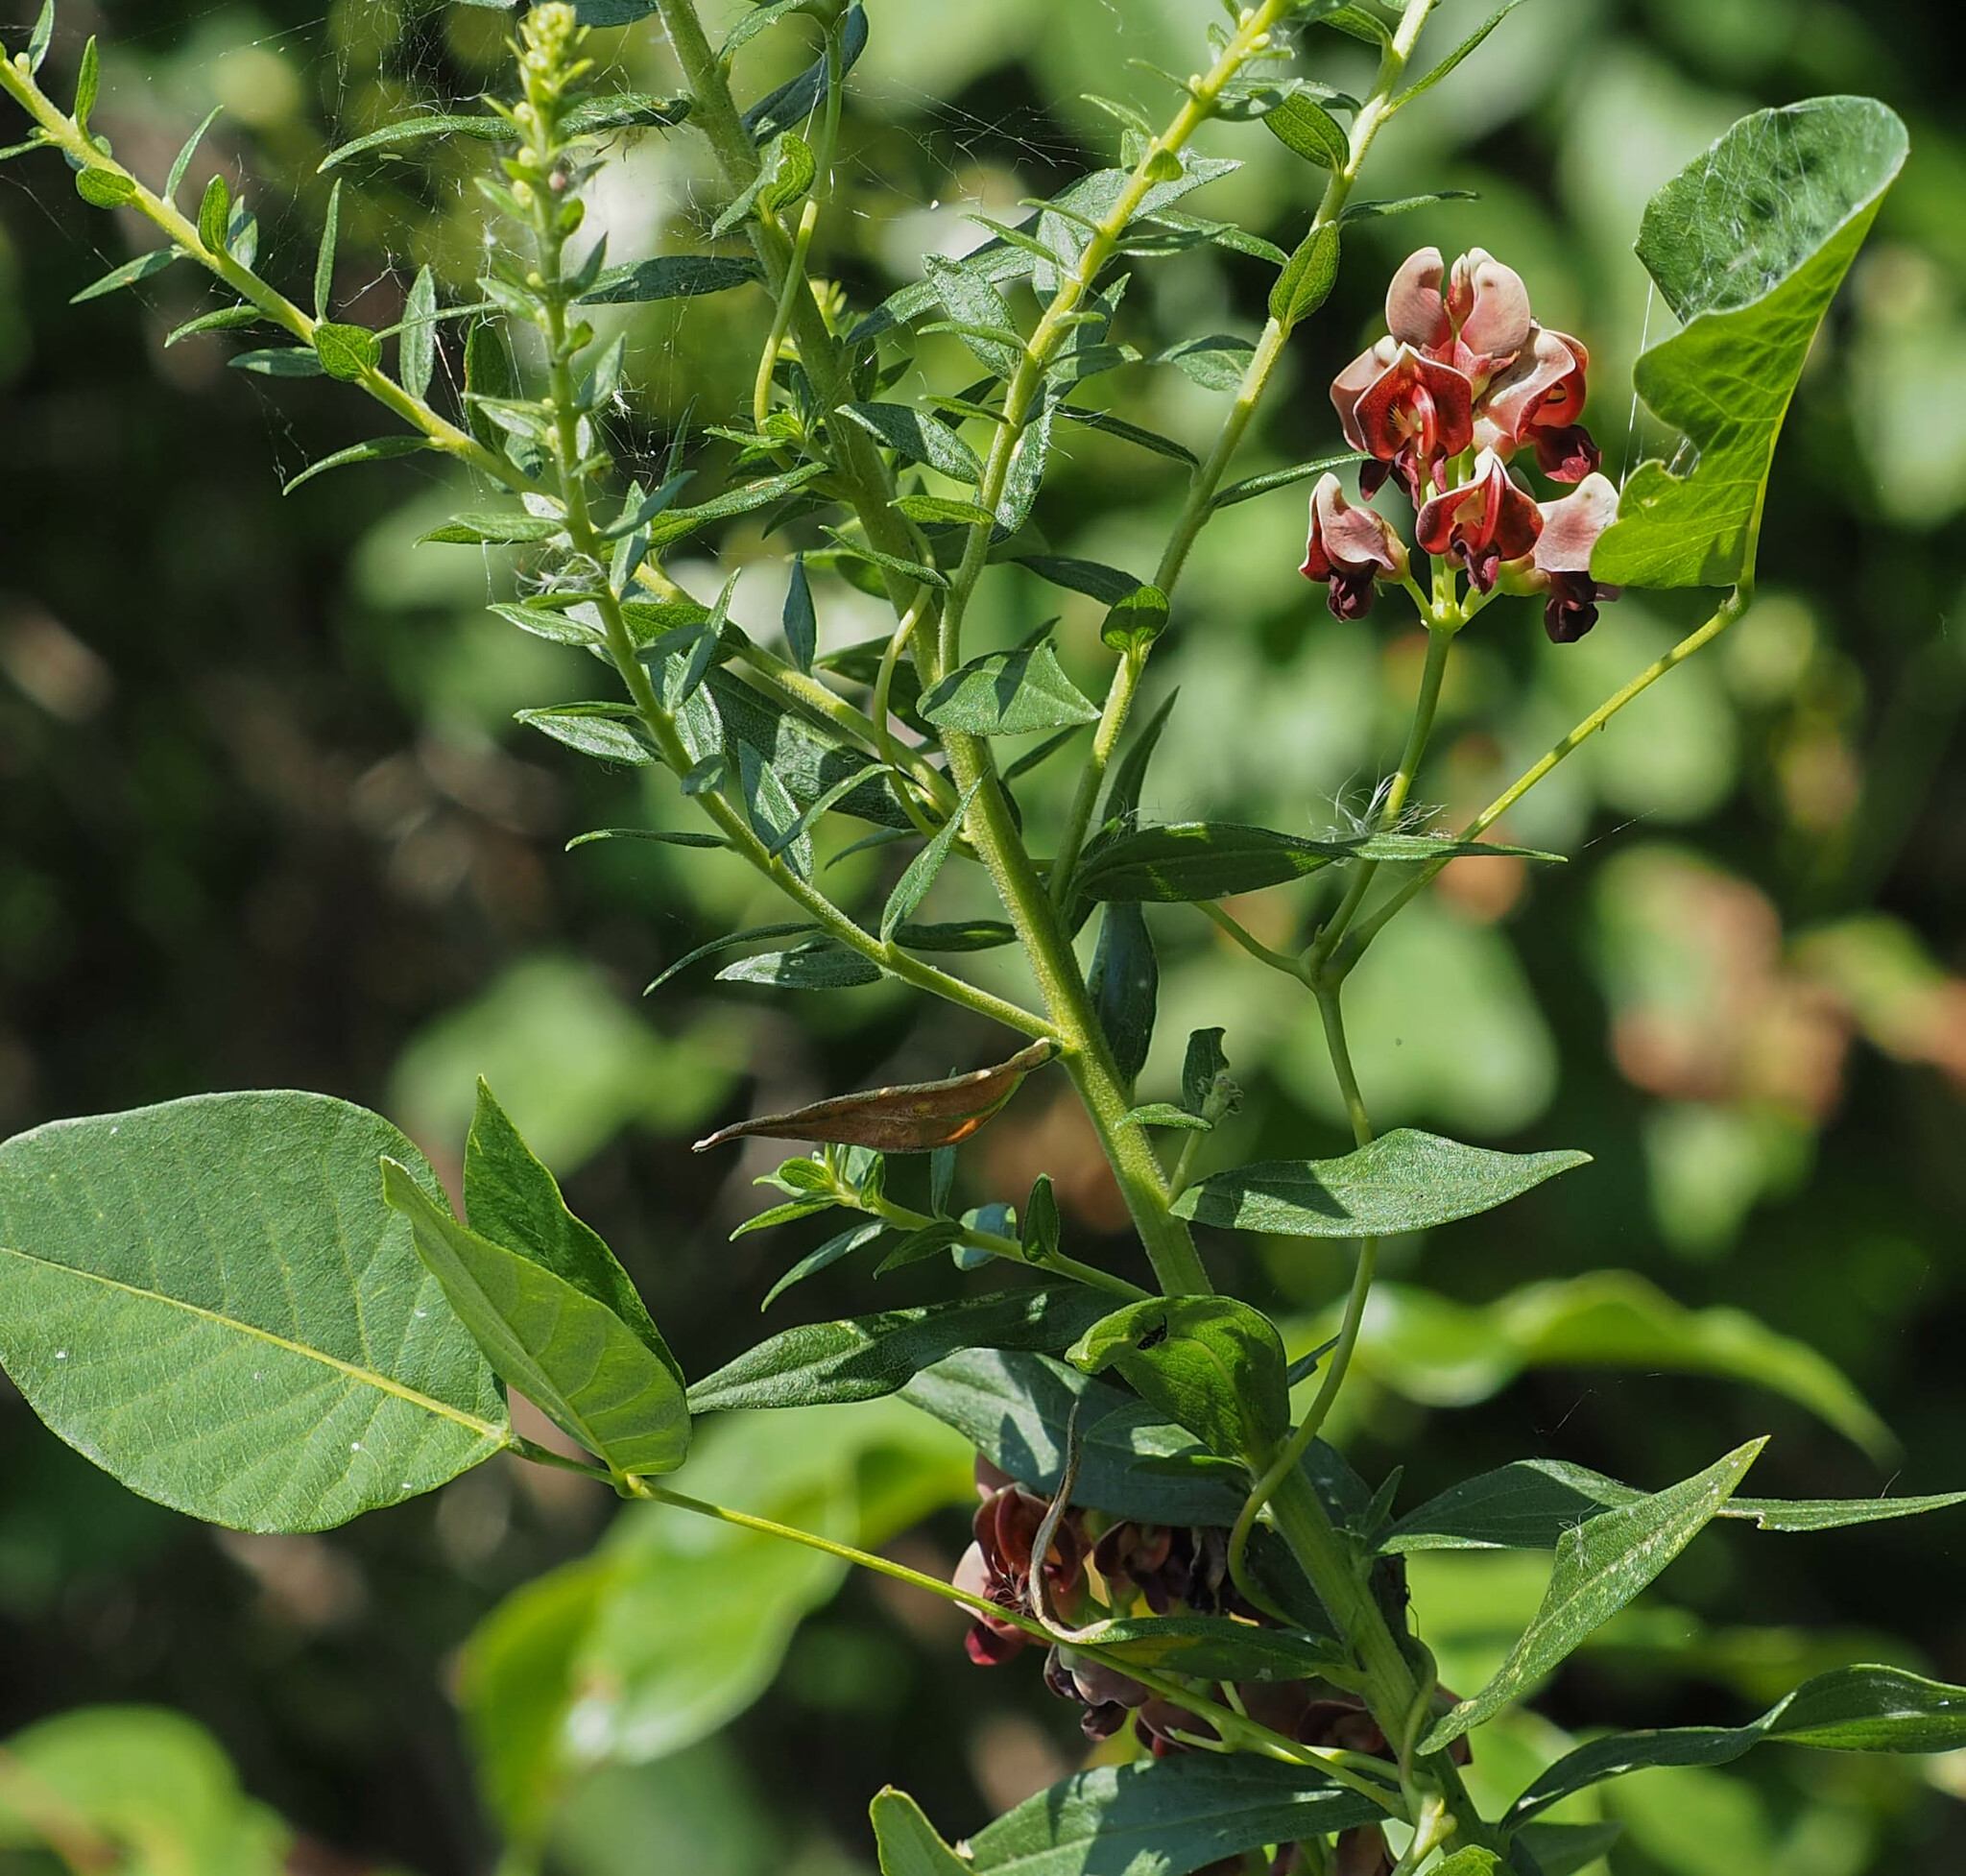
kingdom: Plantae
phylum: Tracheophyta
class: Magnoliopsida
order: Fabales
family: Fabaceae
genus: Apios
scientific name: Apios americana
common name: American potato-bean
